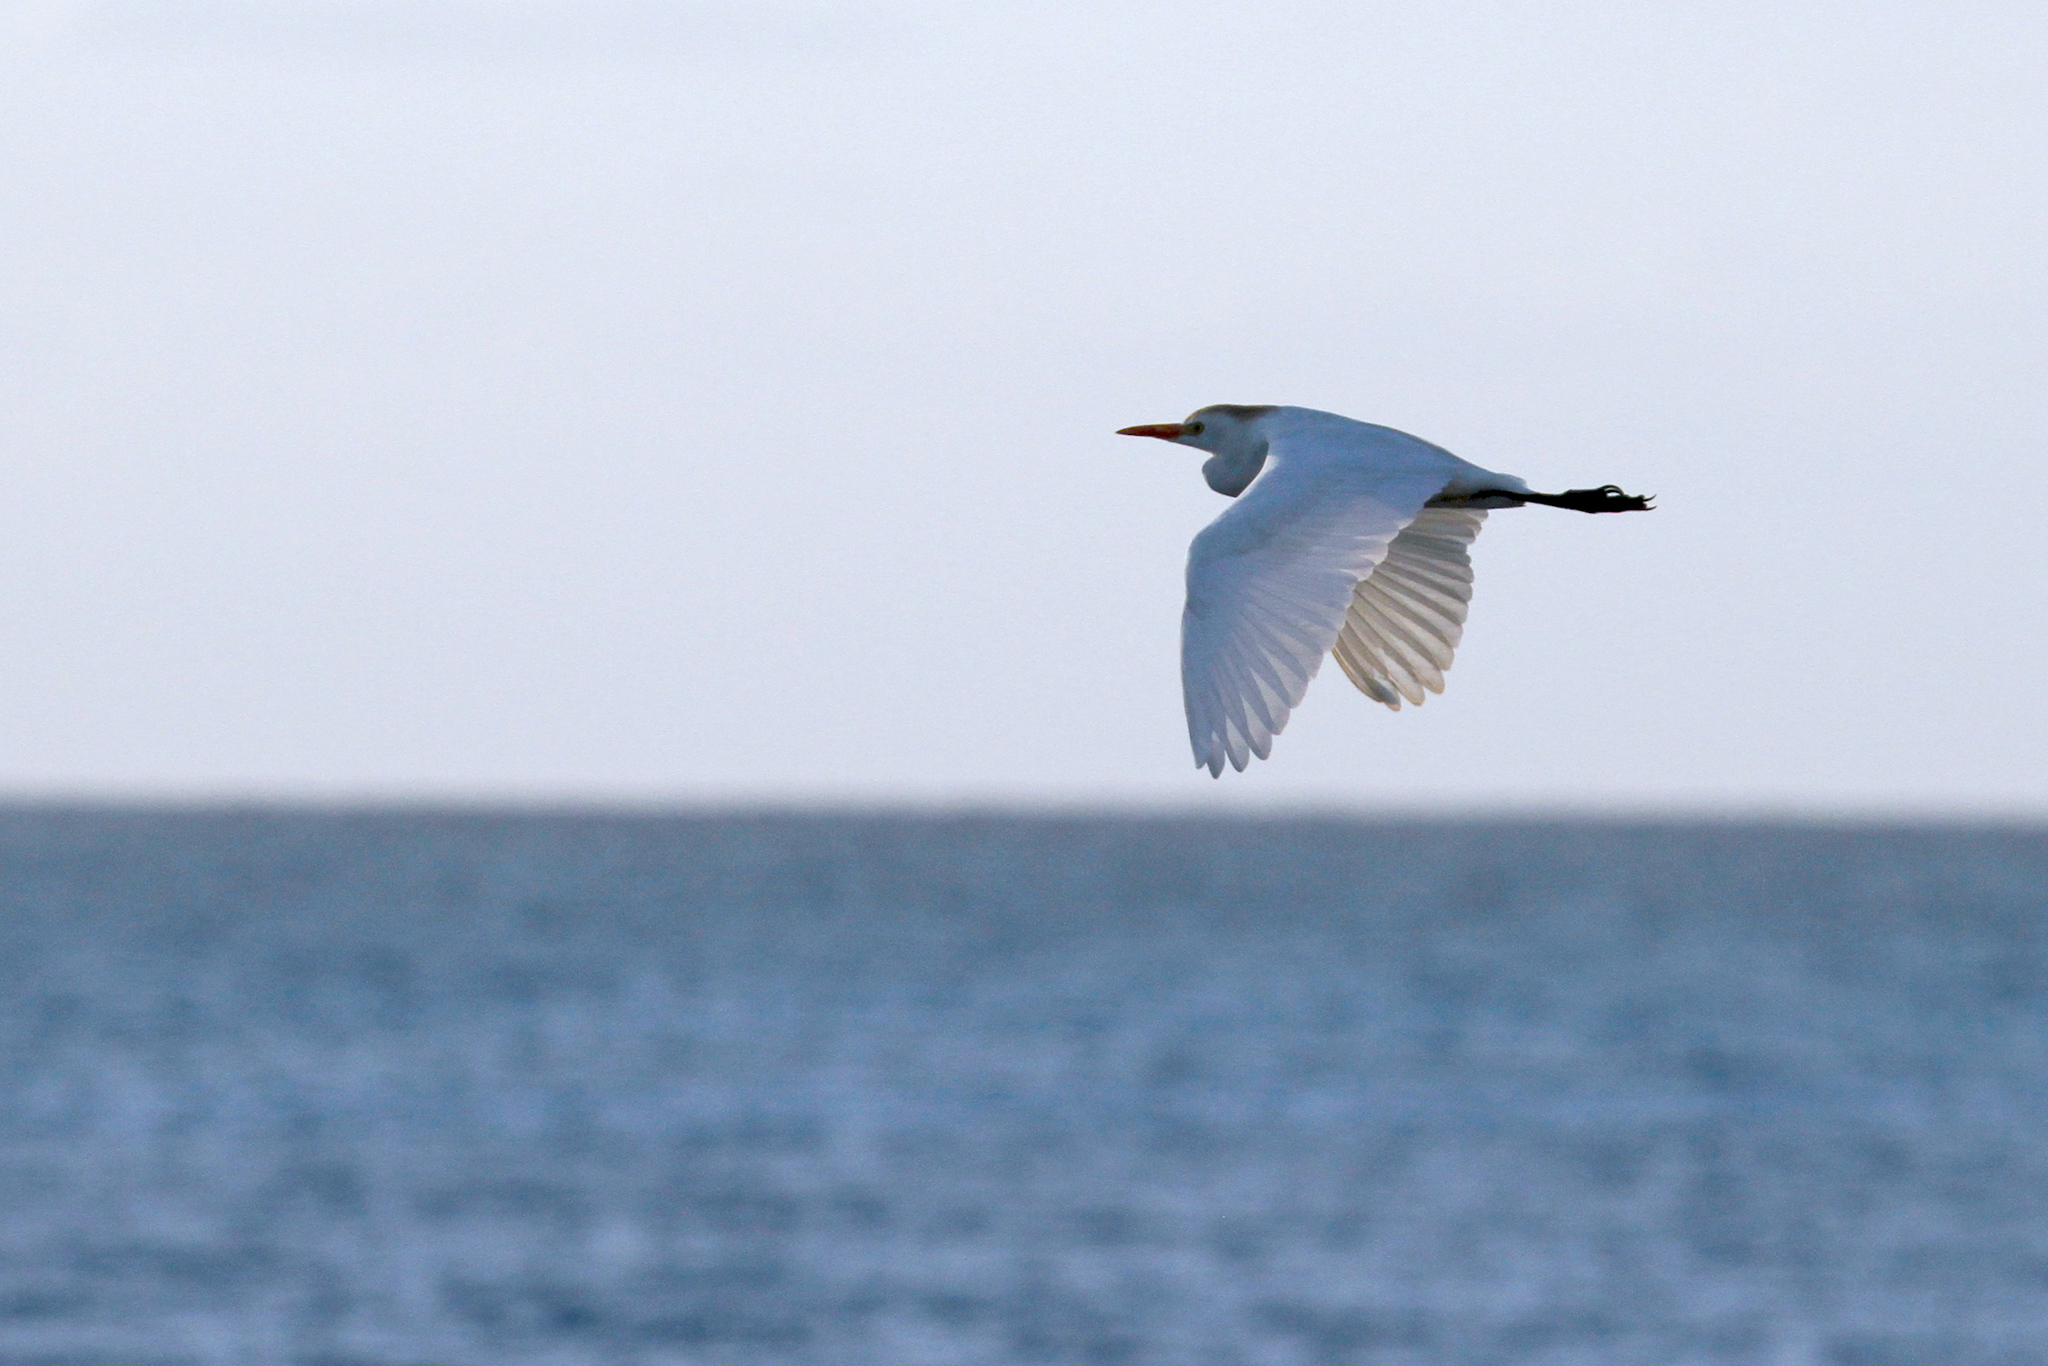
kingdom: Animalia
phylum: Chordata
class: Aves
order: Pelecaniformes
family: Ardeidae
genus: Bubulcus
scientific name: Bubulcus ibis
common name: Cattle egret
